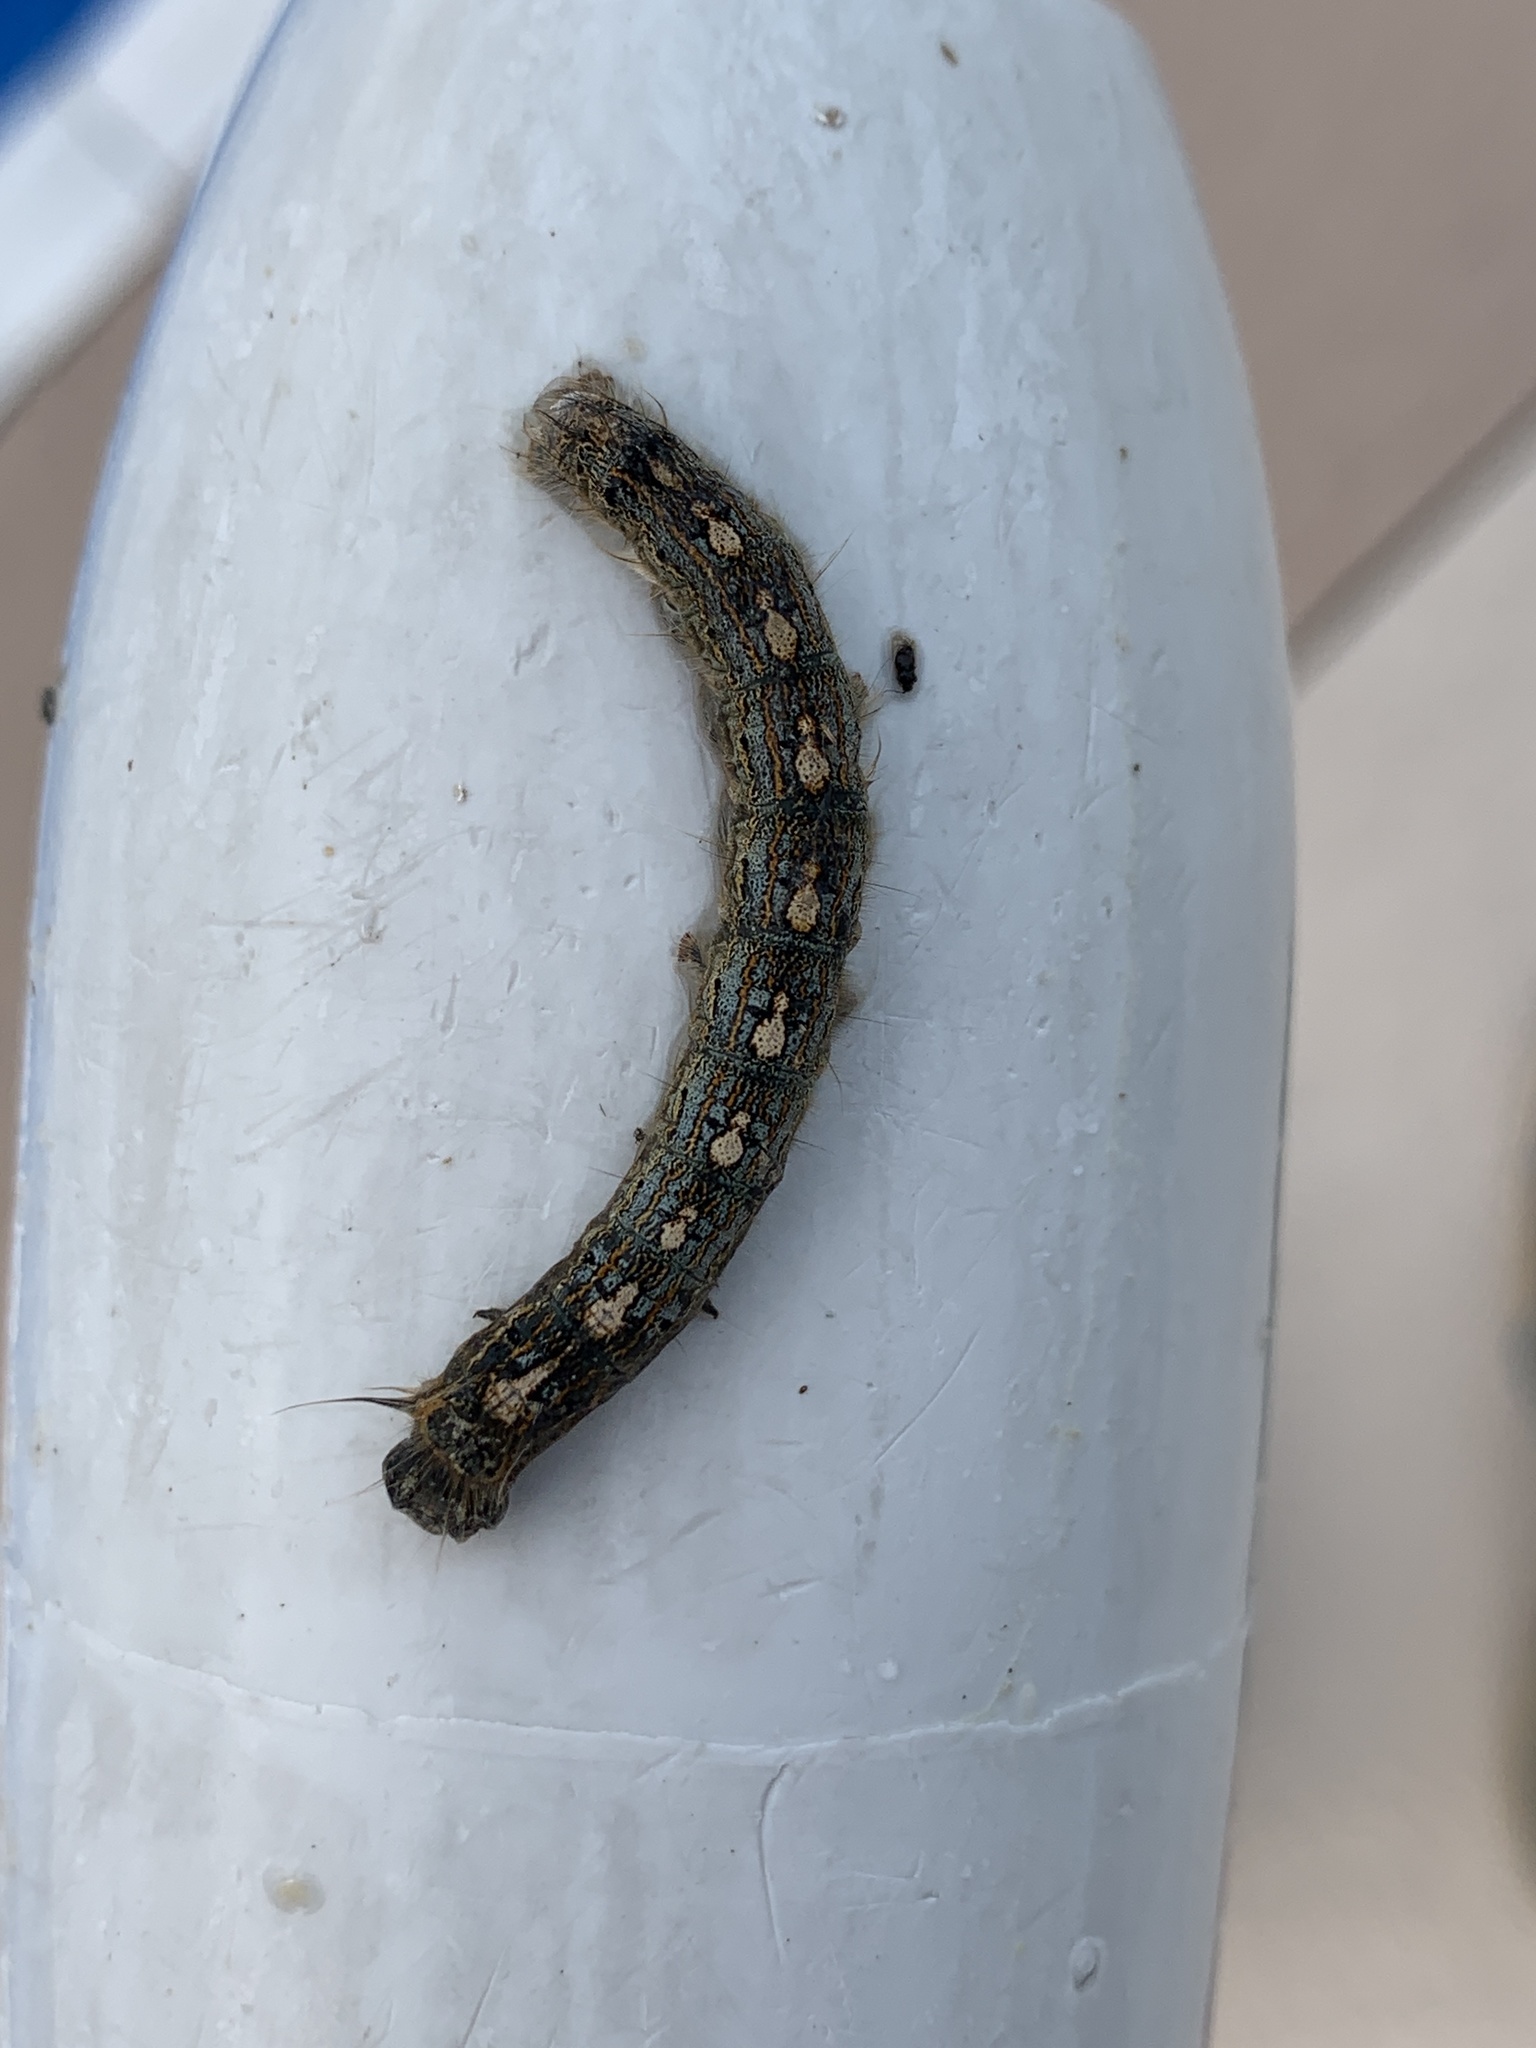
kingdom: Animalia
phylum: Arthropoda
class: Insecta
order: Lepidoptera
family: Lasiocampidae
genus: Malacosoma
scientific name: Malacosoma disstria
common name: Forest tent caterpillar
